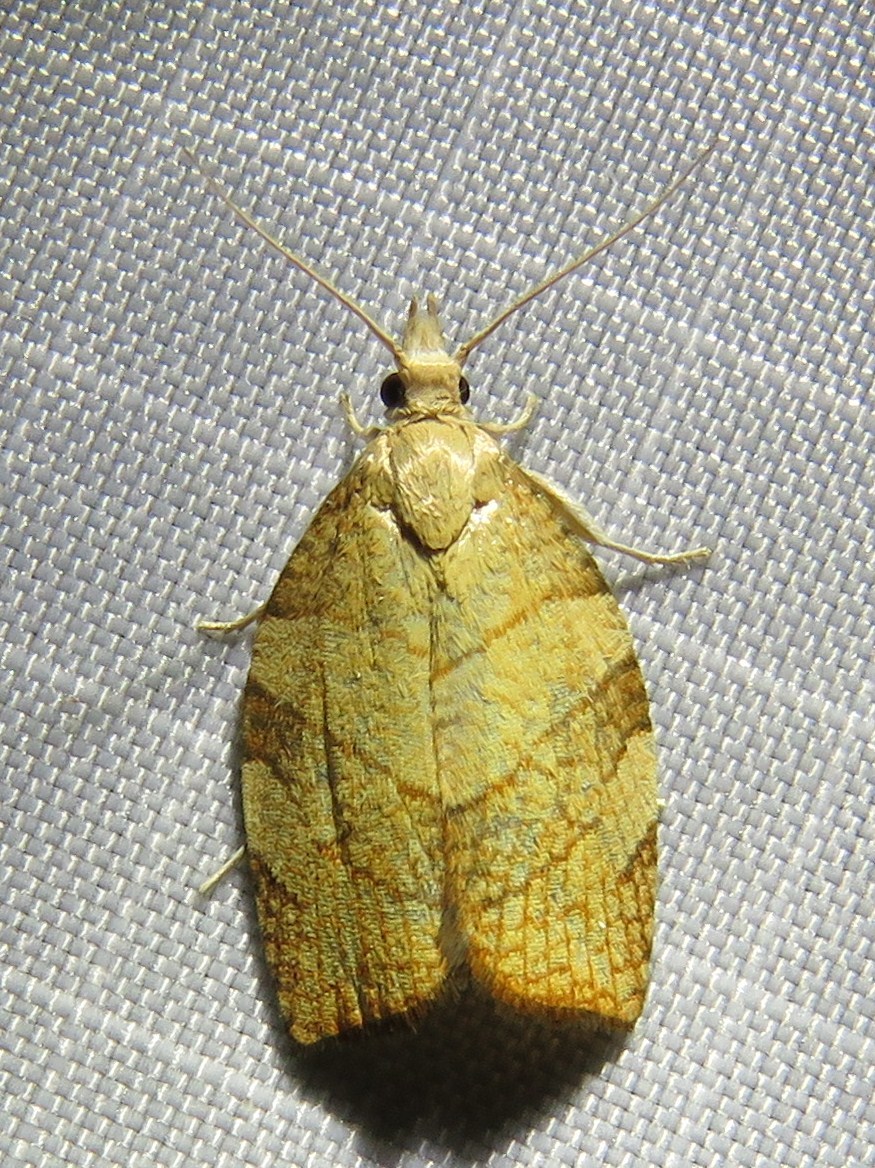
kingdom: Animalia
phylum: Arthropoda
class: Insecta
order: Lepidoptera
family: Tortricidae
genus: Pandemis
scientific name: Pandemis corylana
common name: Chequered fruit-tree tortrix
